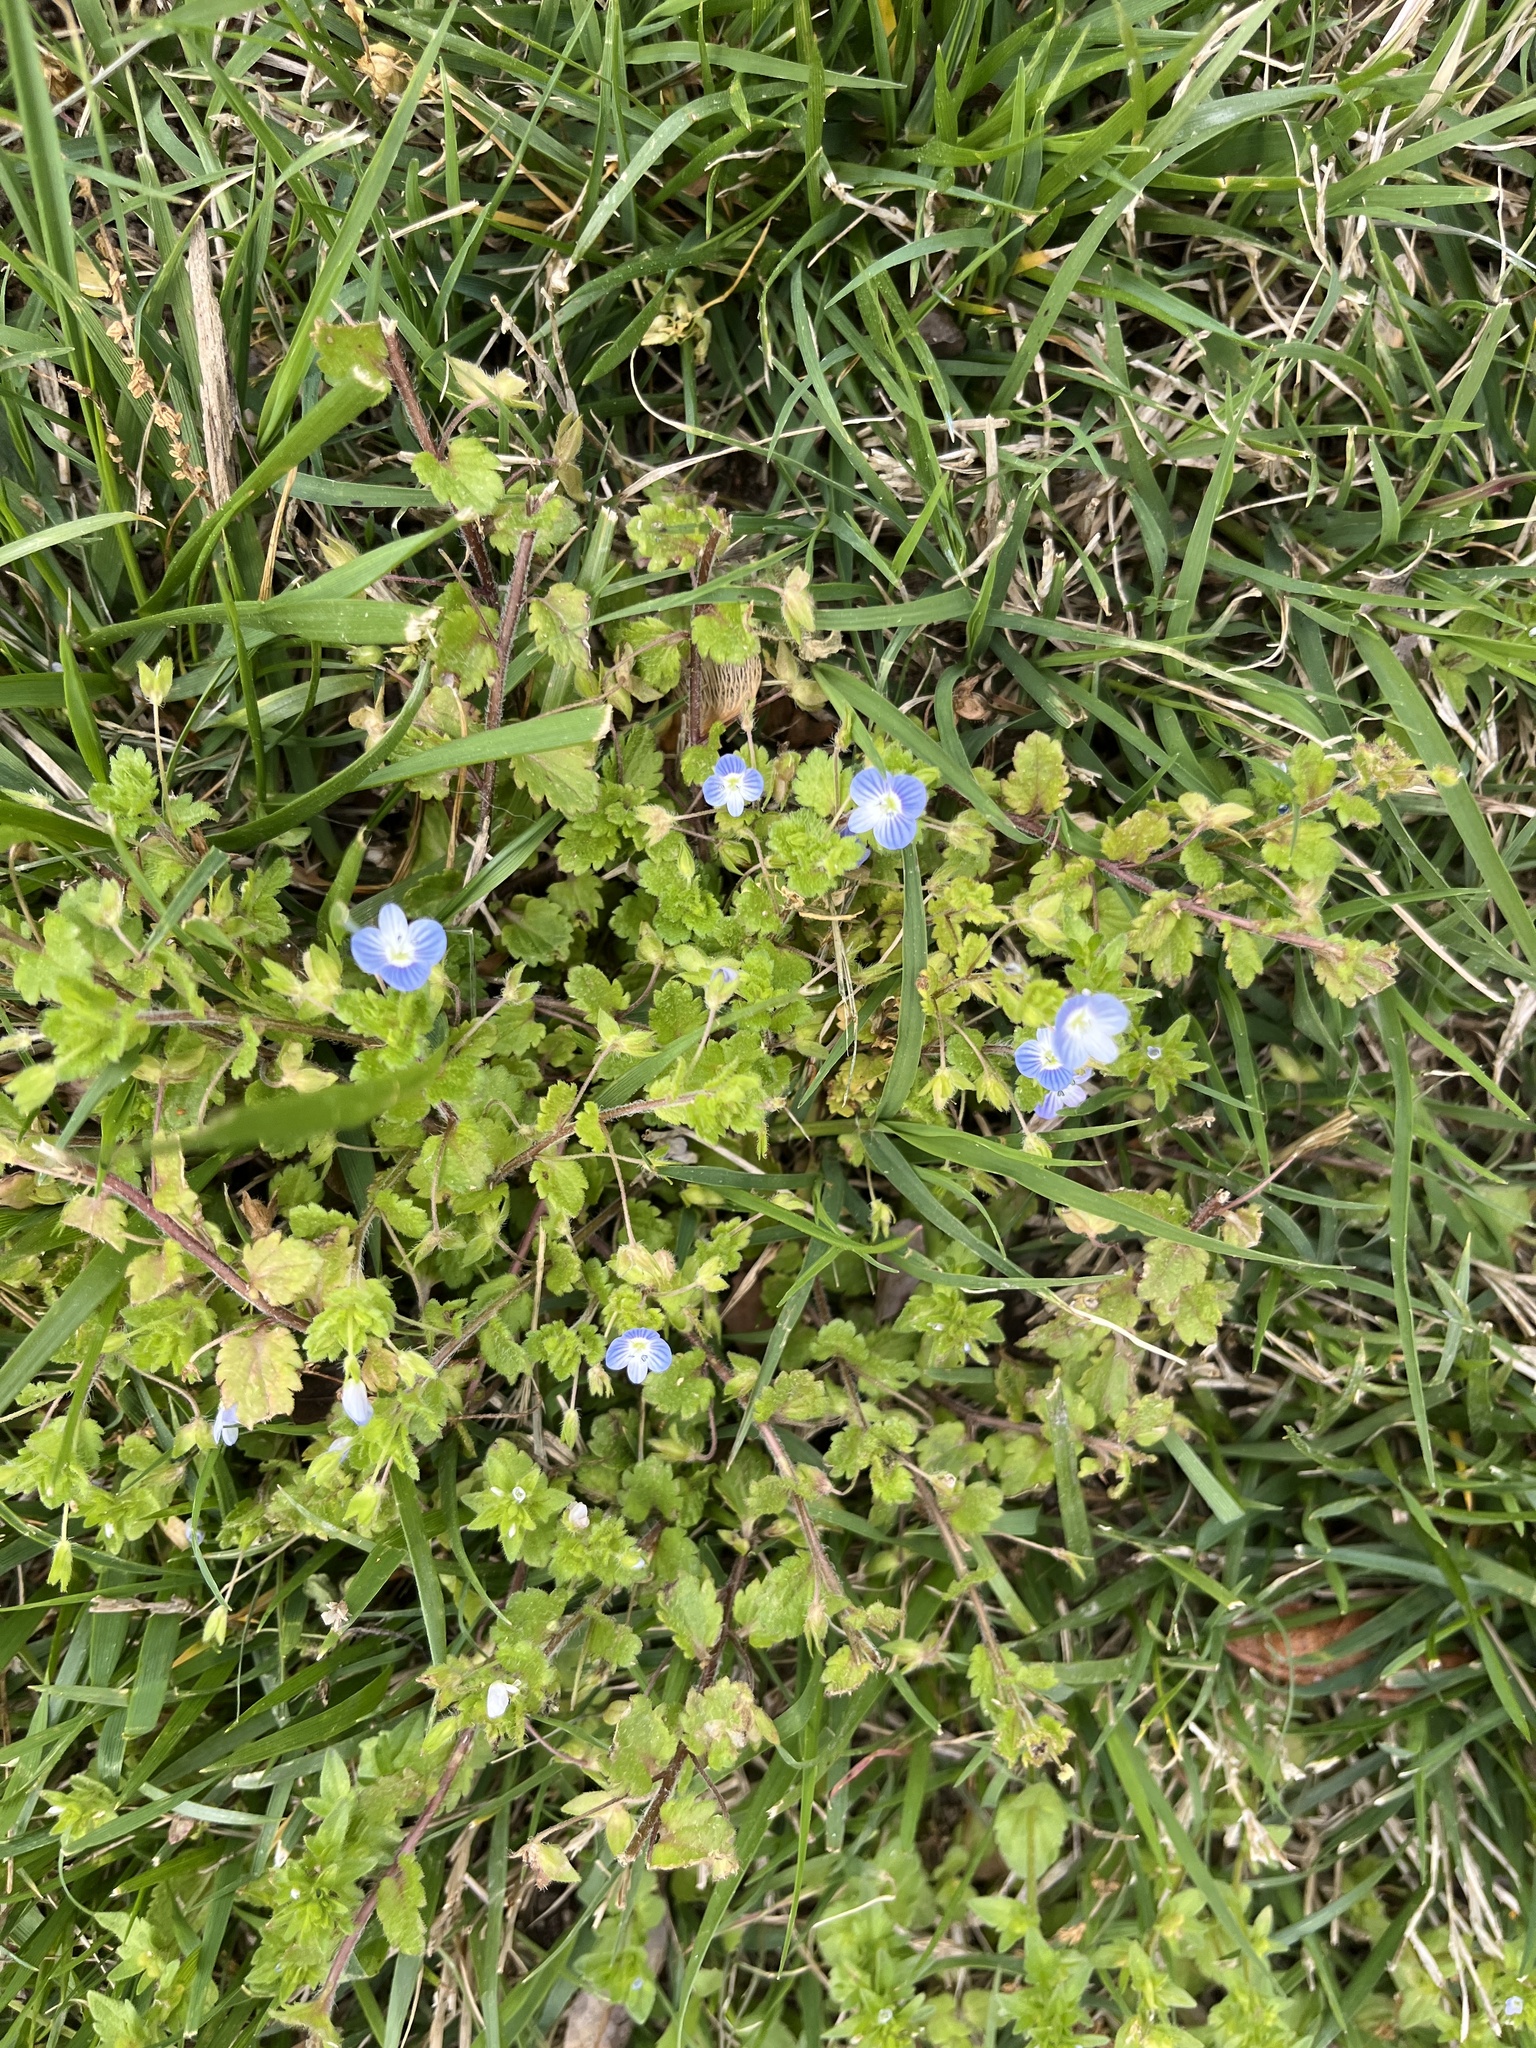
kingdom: Plantae
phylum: Tracheophyta
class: Magnoliopsida
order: Lamiales
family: Plantaginaceae
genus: Veronica
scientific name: Veronica persica
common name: Common field-speedwell
